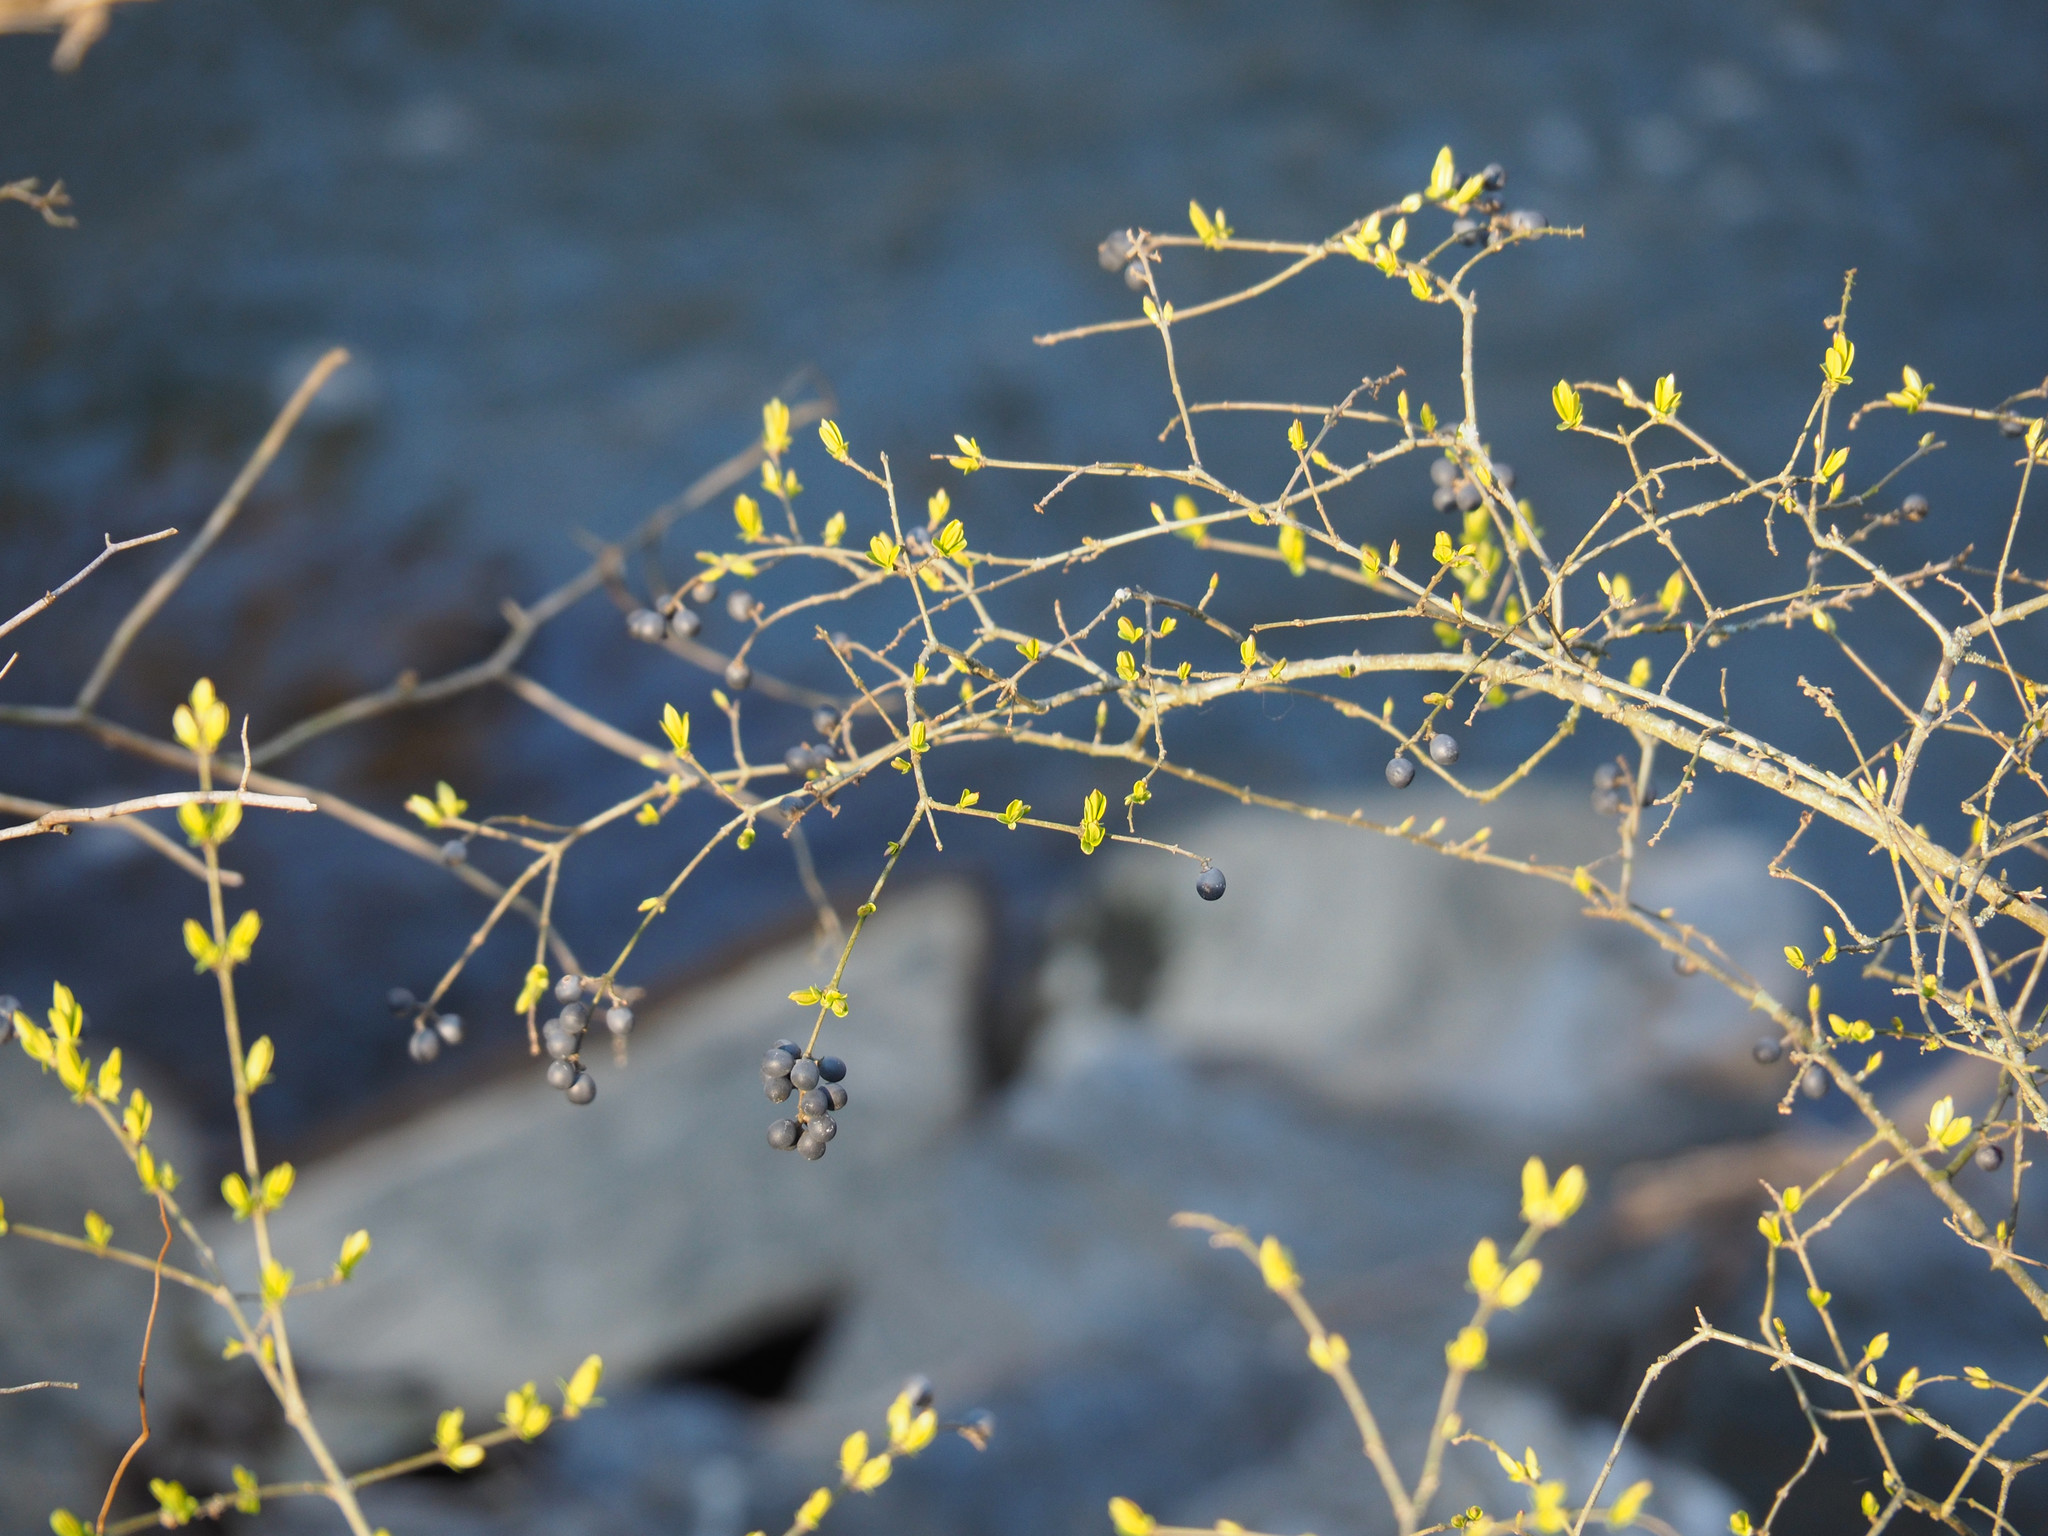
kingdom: Plantae
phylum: Tracheophyta
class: Magnoliopsida
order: Lamiales
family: Oleaceae
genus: Ligustrum
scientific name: Ligustrum
